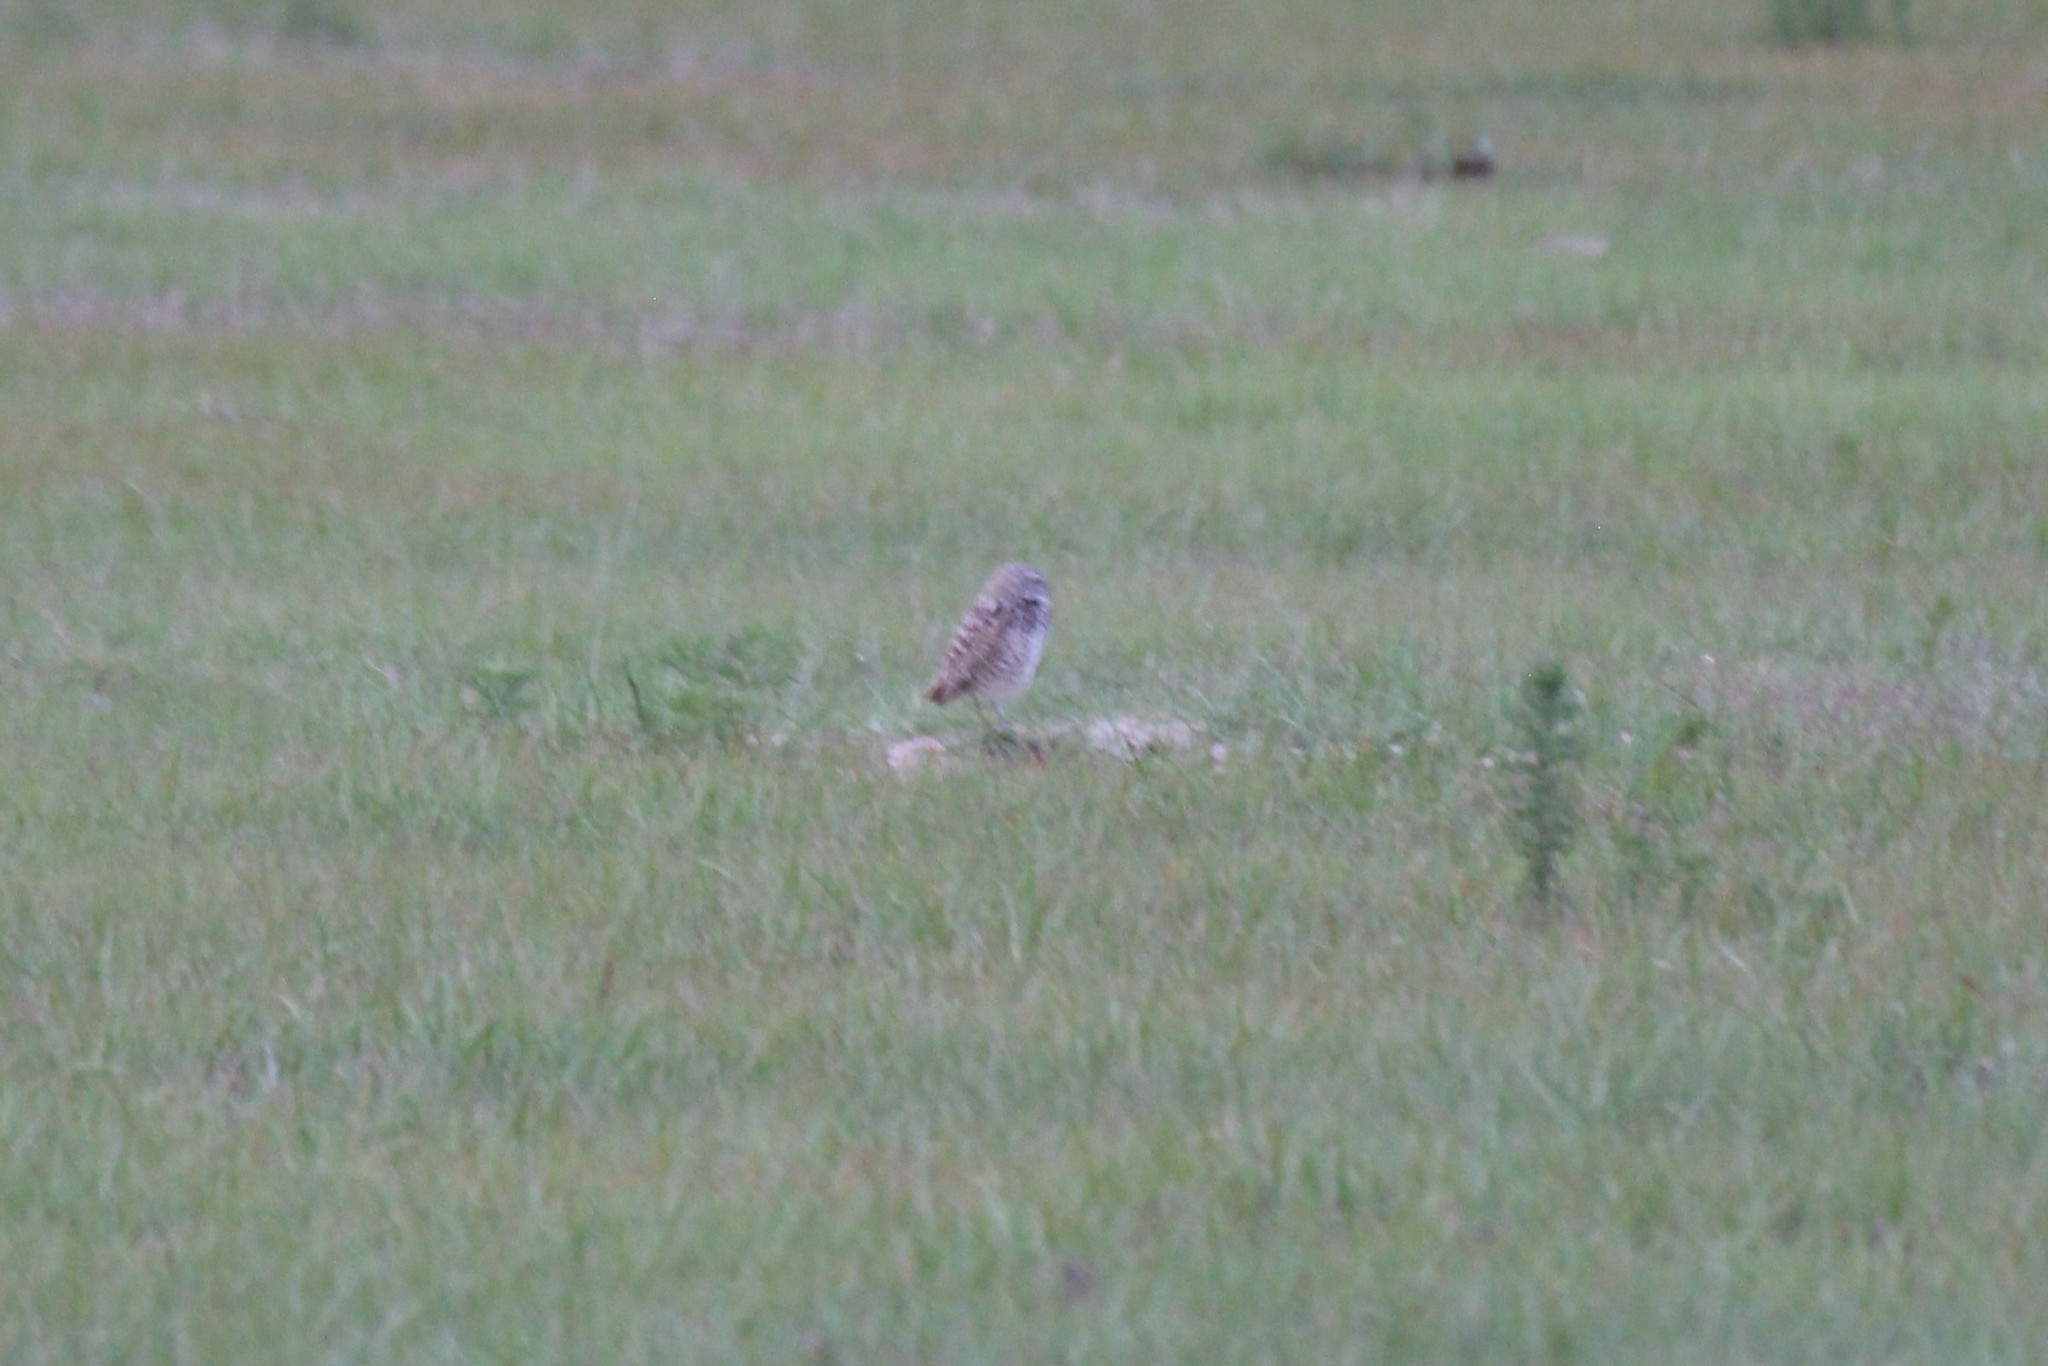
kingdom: Animalia
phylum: Chordata
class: Aves
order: Strigiformes
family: Strigidae
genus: Athene
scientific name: Athene cunicularia
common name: Burrowing owl
